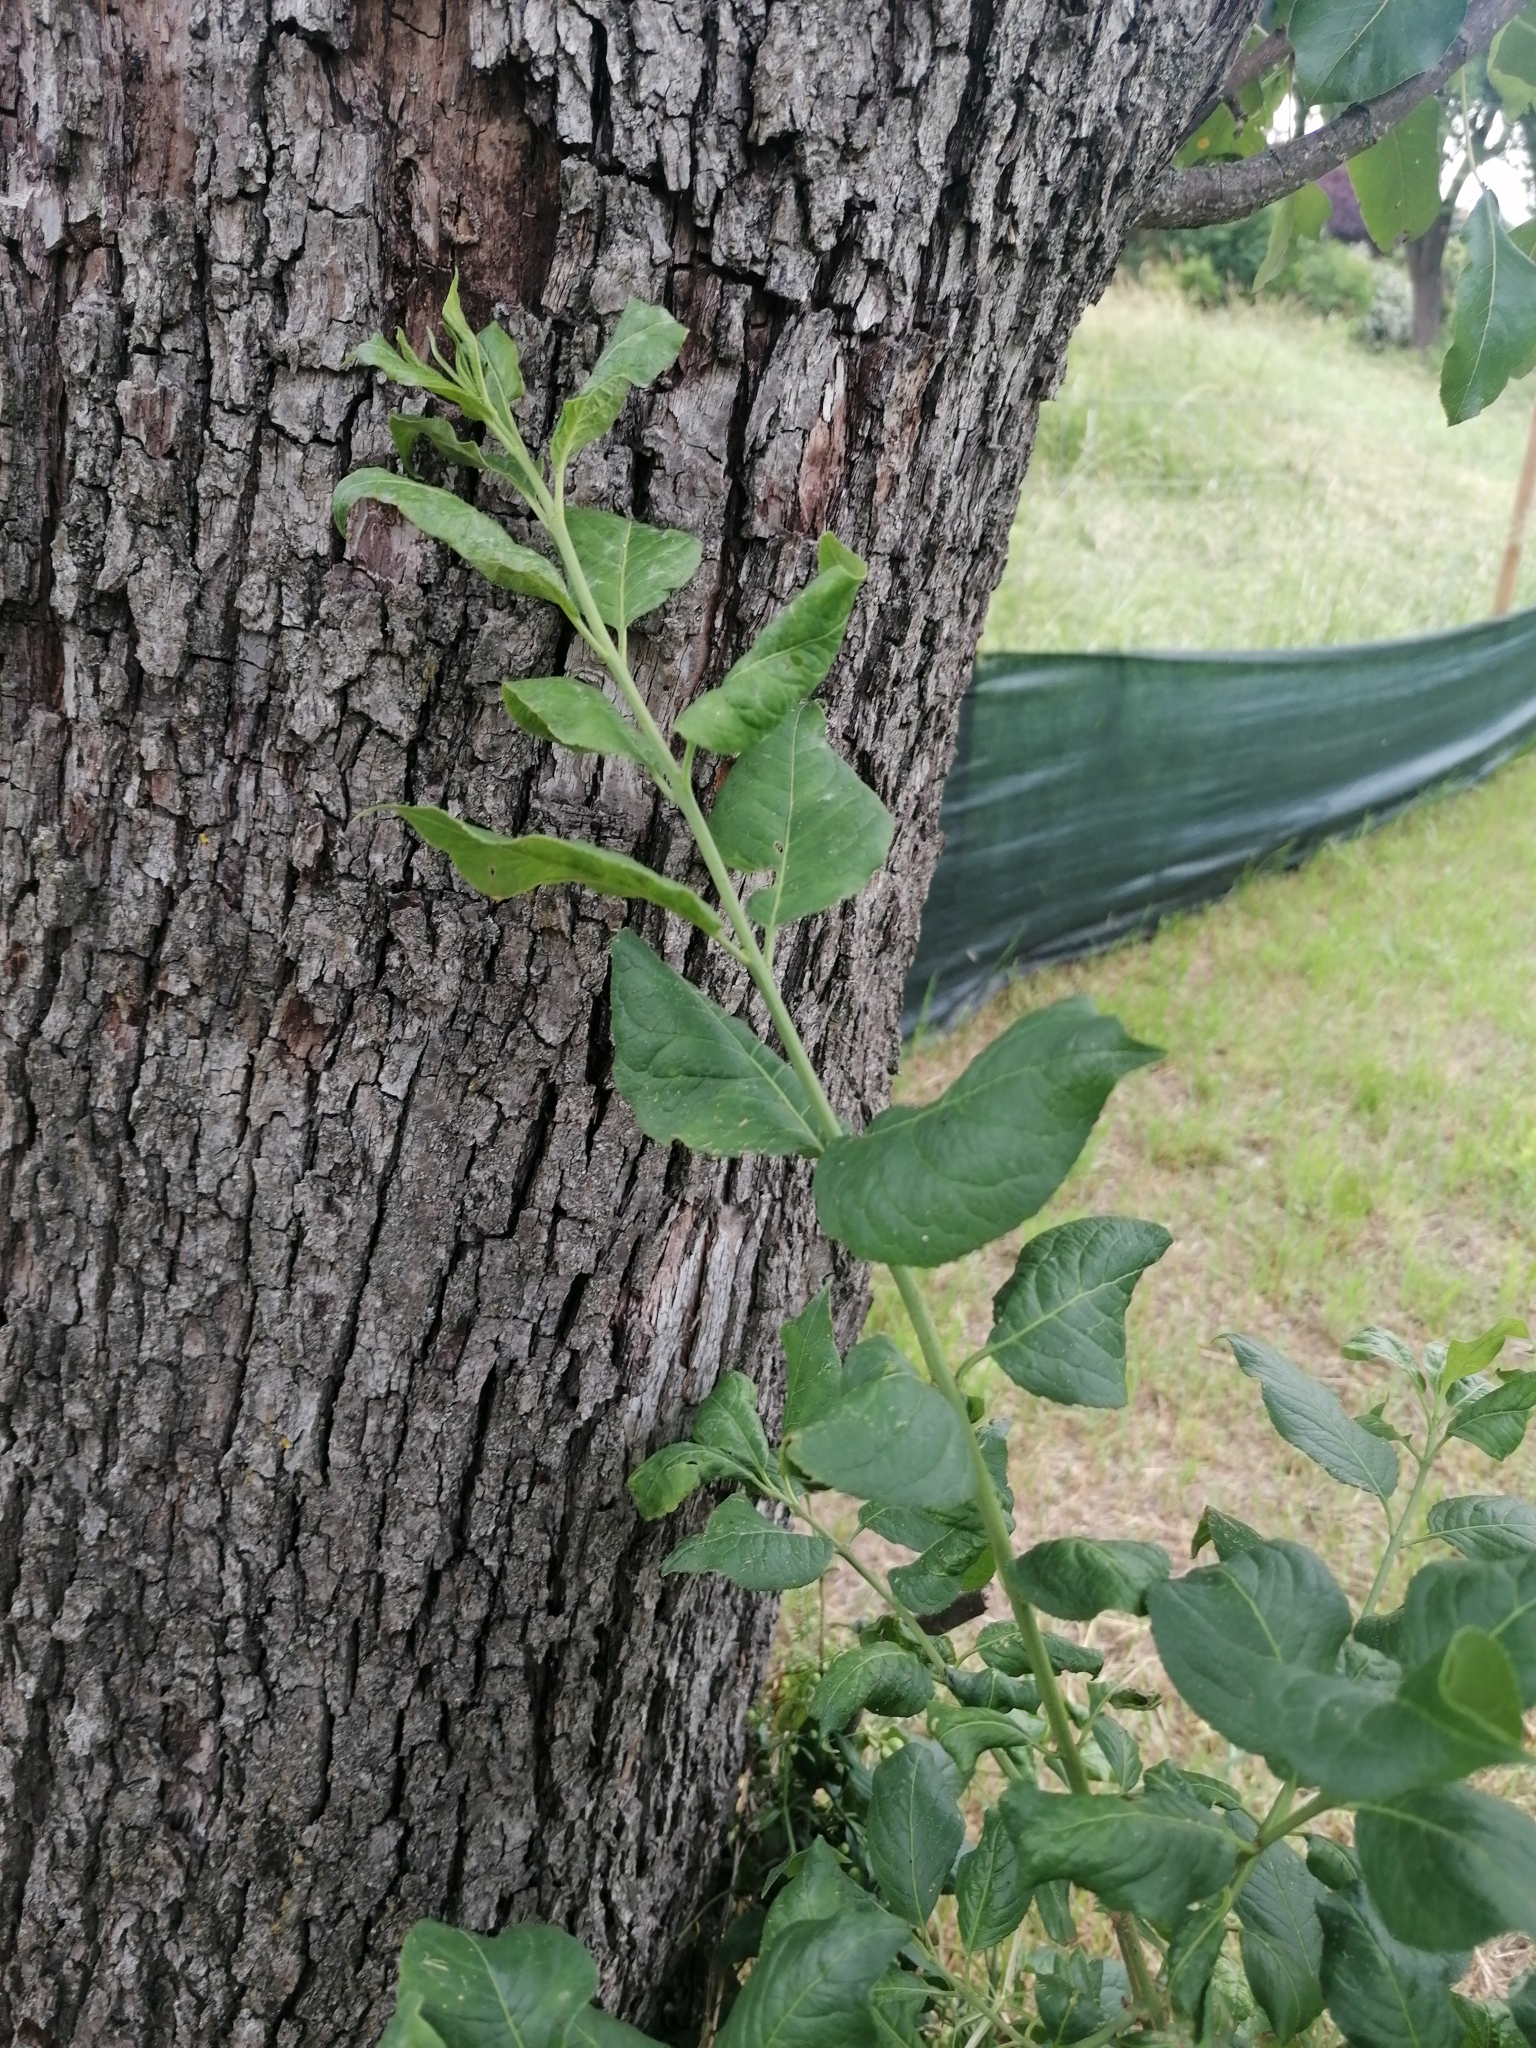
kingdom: Plantae
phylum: Tracheophyta
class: Magnoliopsida
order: Celastrales
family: Celastraceae
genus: Euonymus
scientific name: Euonymus europaeus
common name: Spindle
